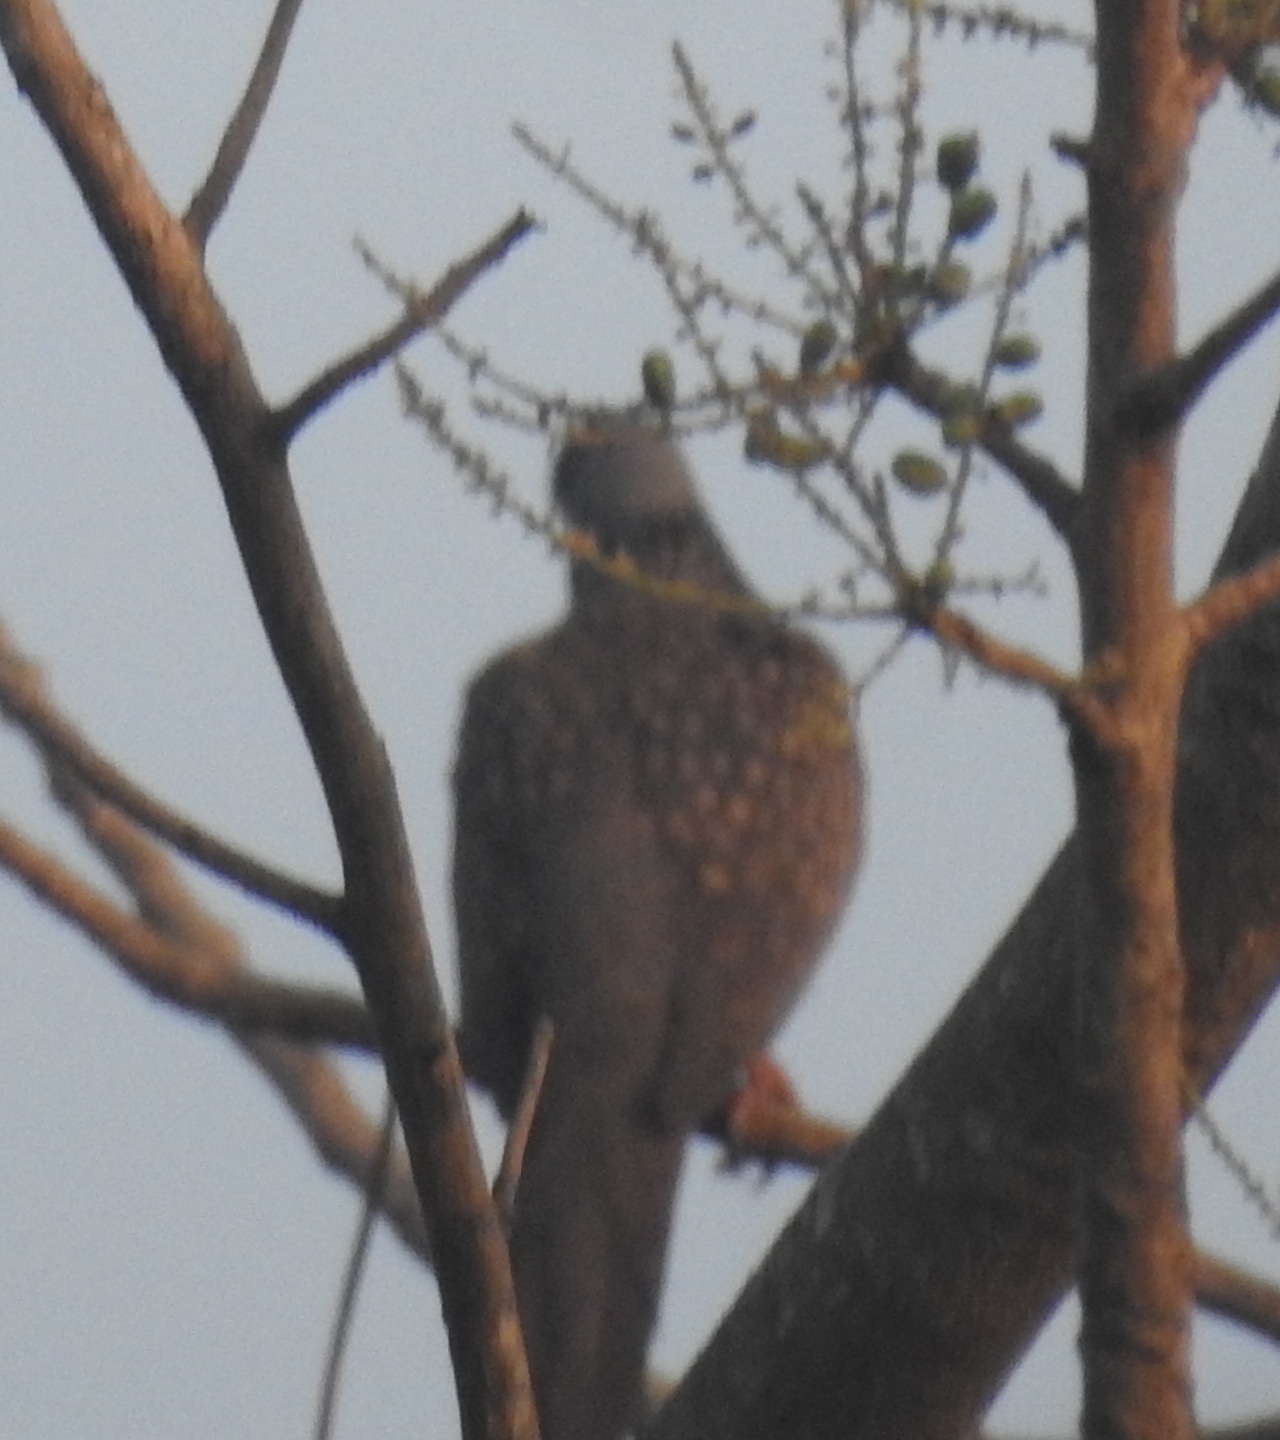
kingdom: Animalia
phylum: Chordata
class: Aves
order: Columbiformes
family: Columbidae
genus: Spilopelia
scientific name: Spilopelia chinensis
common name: Spotted dove
